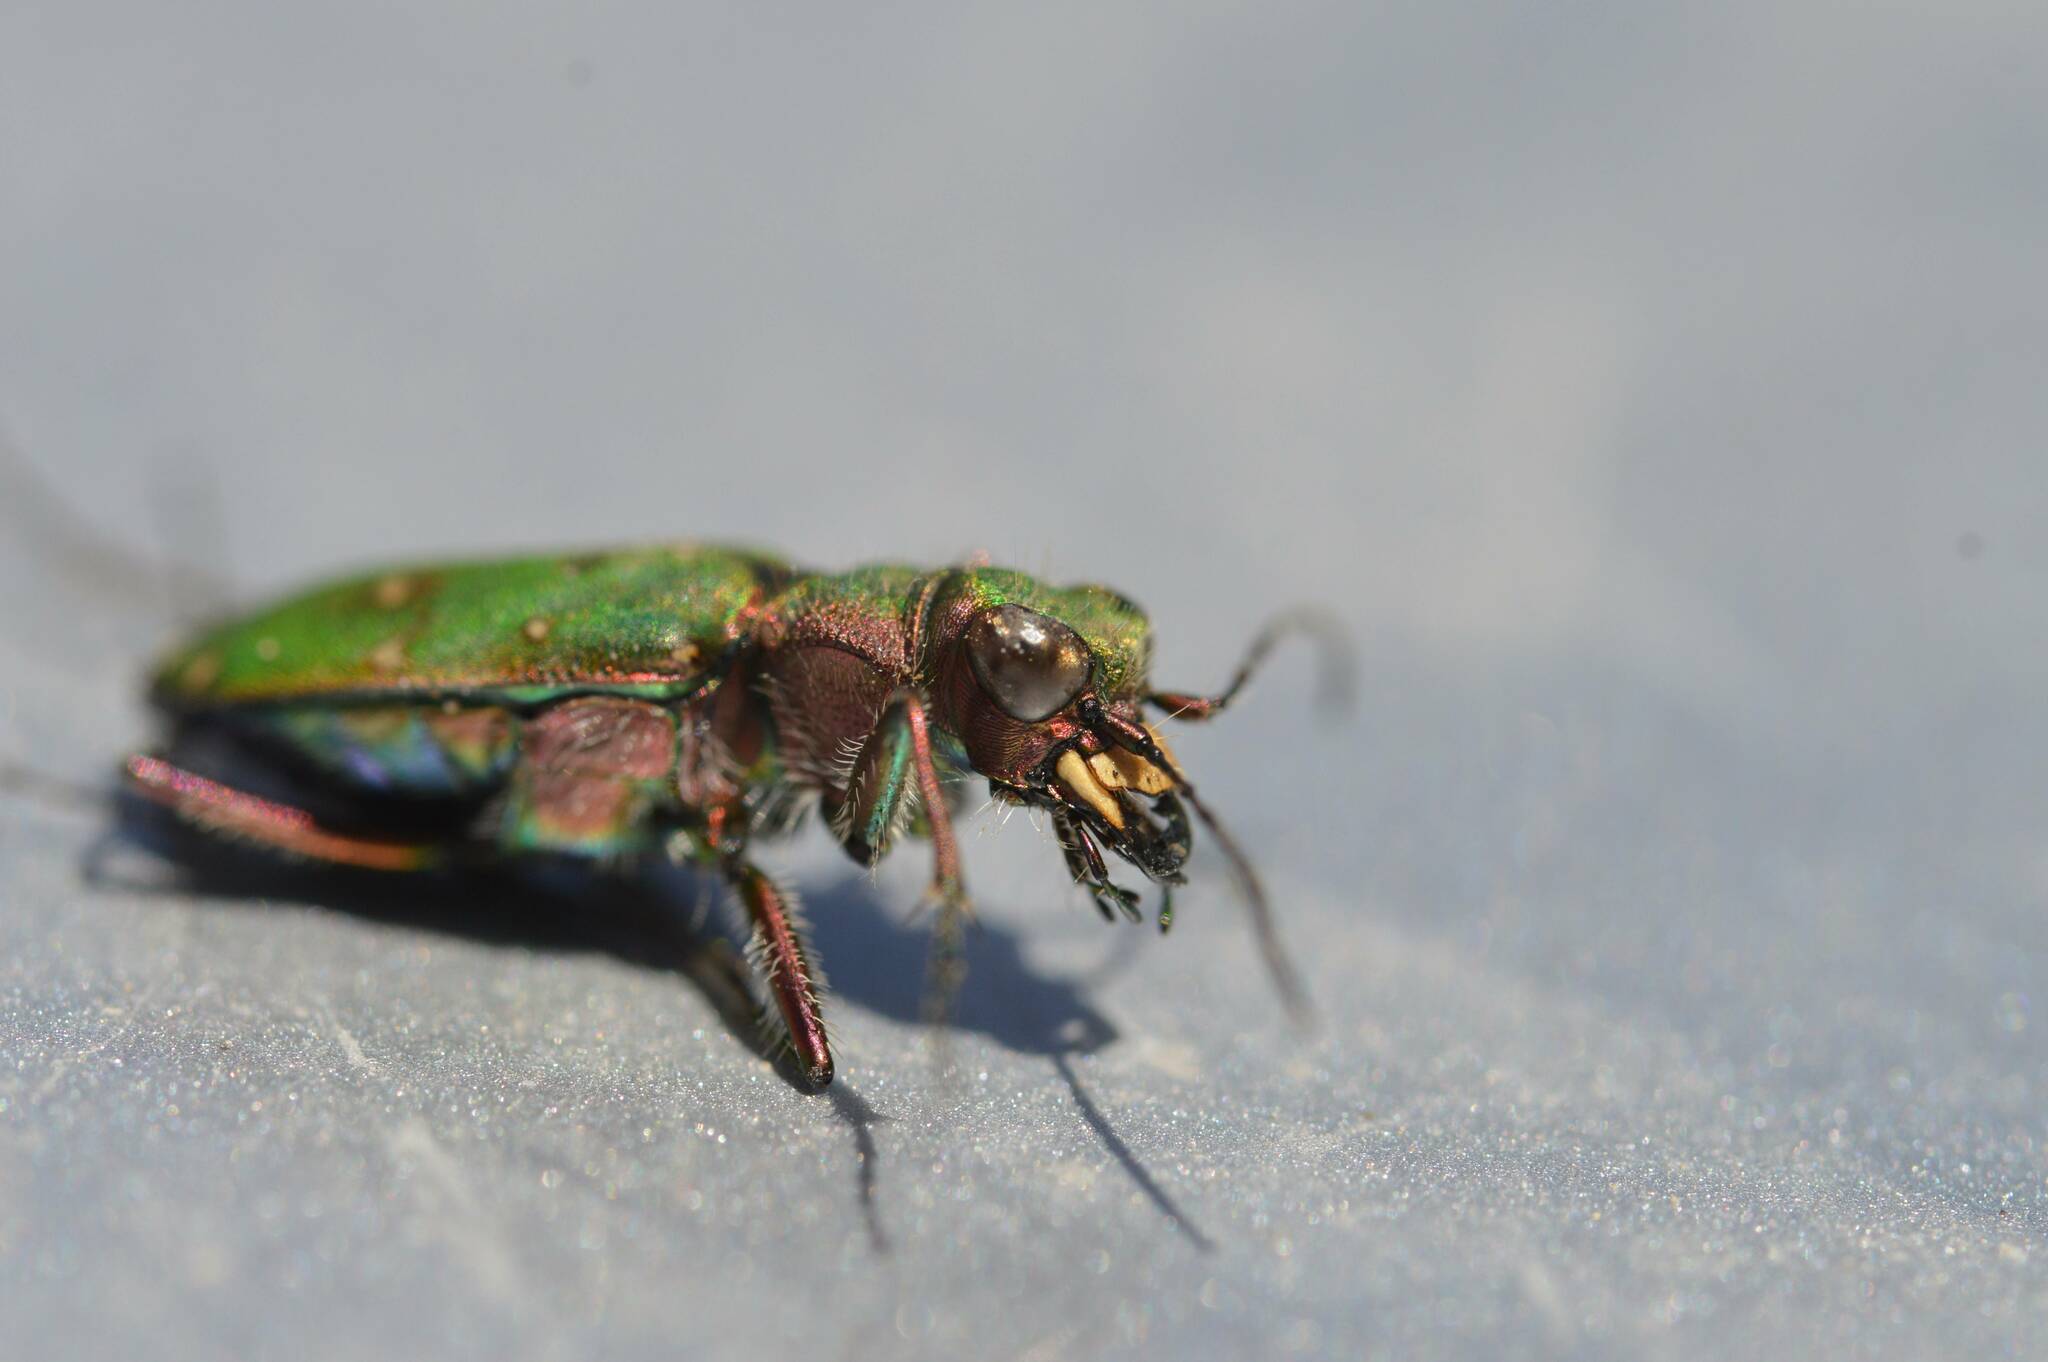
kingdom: Animalia
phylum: Arthropoda
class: Insecta
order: Coleoptera
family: Carabidae
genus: Cicindela
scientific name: Cicindela campestris
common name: Common tiger beetle
